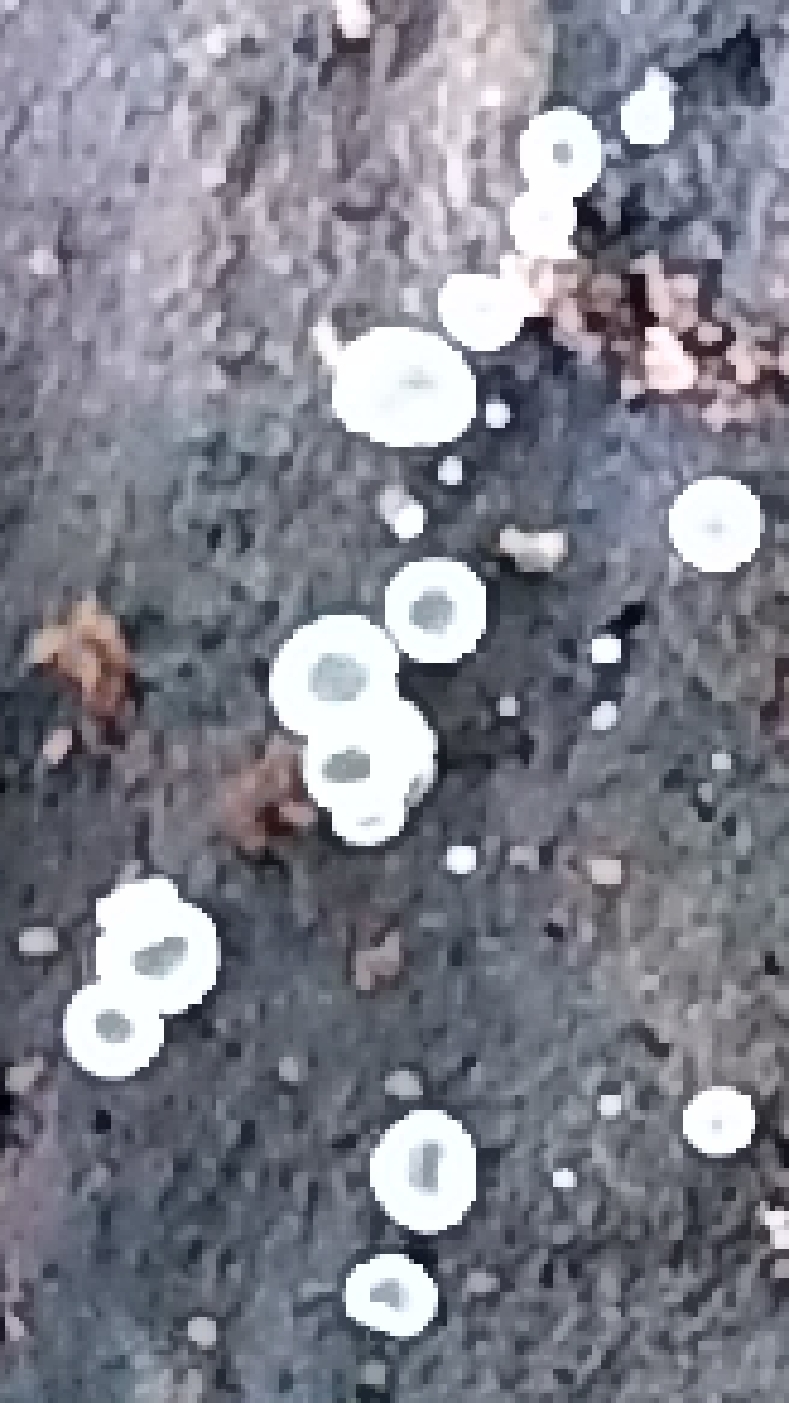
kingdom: Fungi
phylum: Ascomycota
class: Leotiomycetes
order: Helotiales
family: Mollisiaceae
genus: Mollisia
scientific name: Mollisia oblonga
